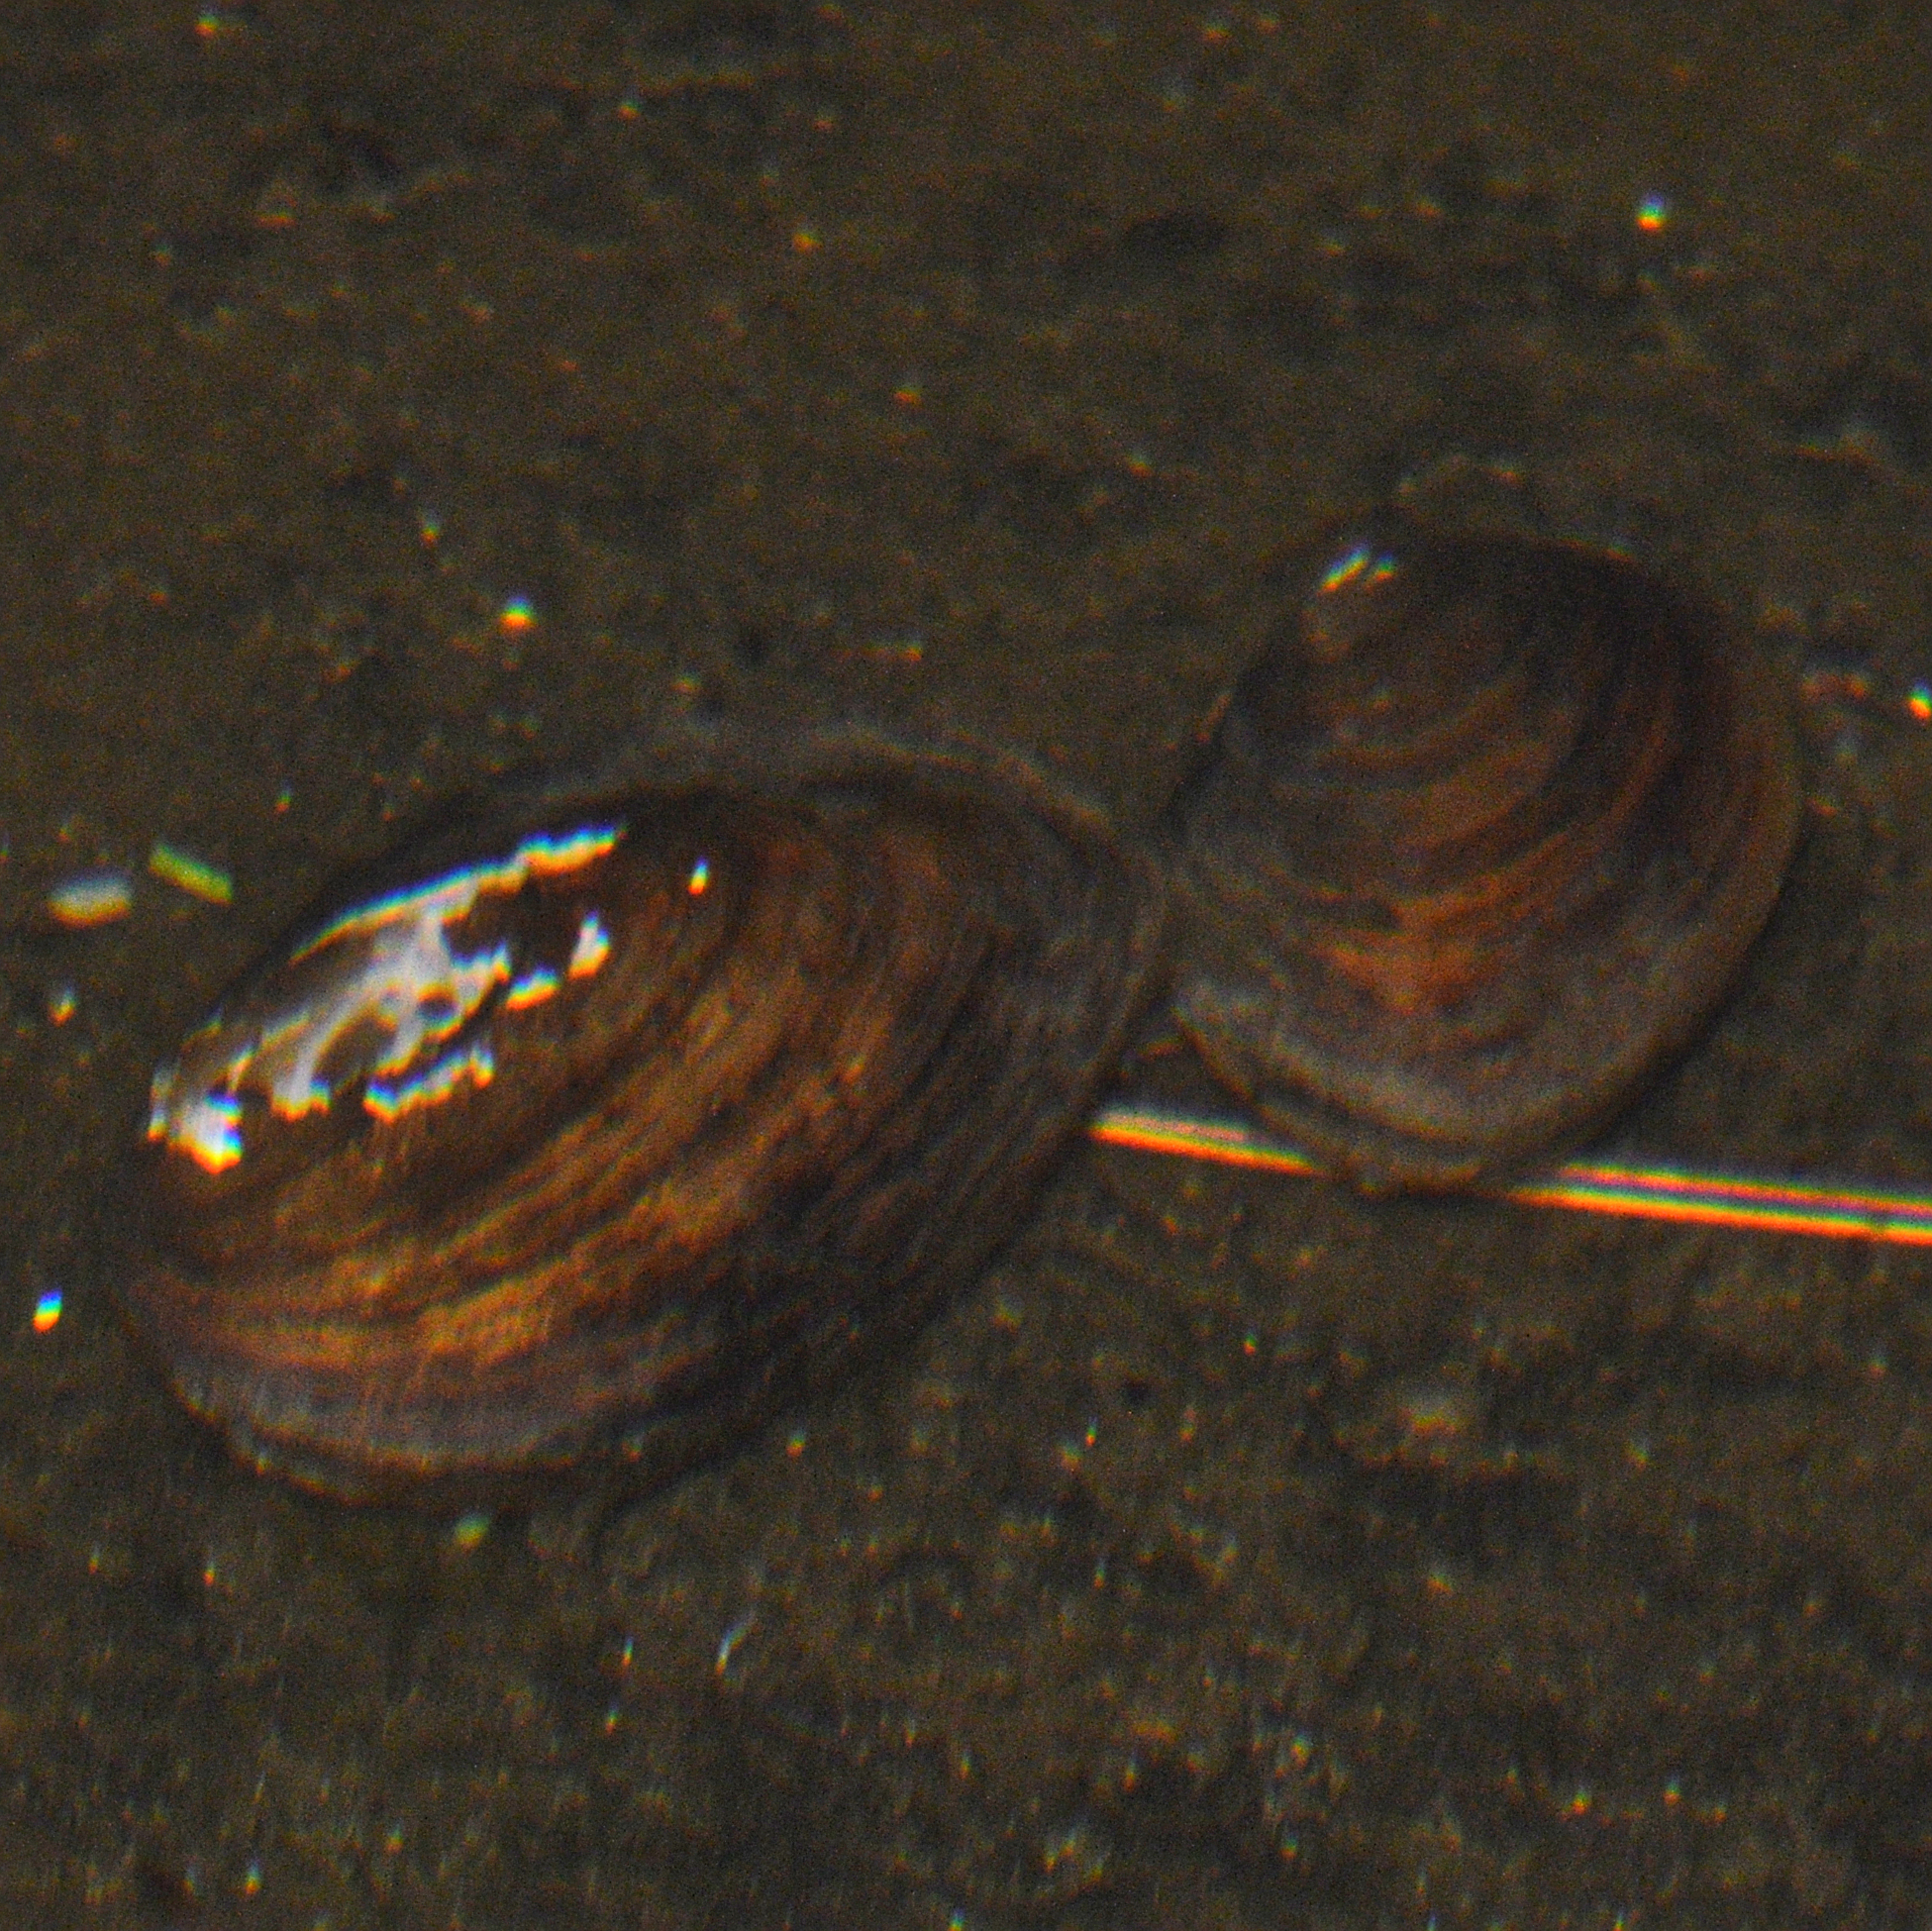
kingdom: Animalia
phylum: Mollusca
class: Bivalvia
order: Unionida
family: Unionidae
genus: Elliptio
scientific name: Elliptio complanata
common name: Eastern elliptio
